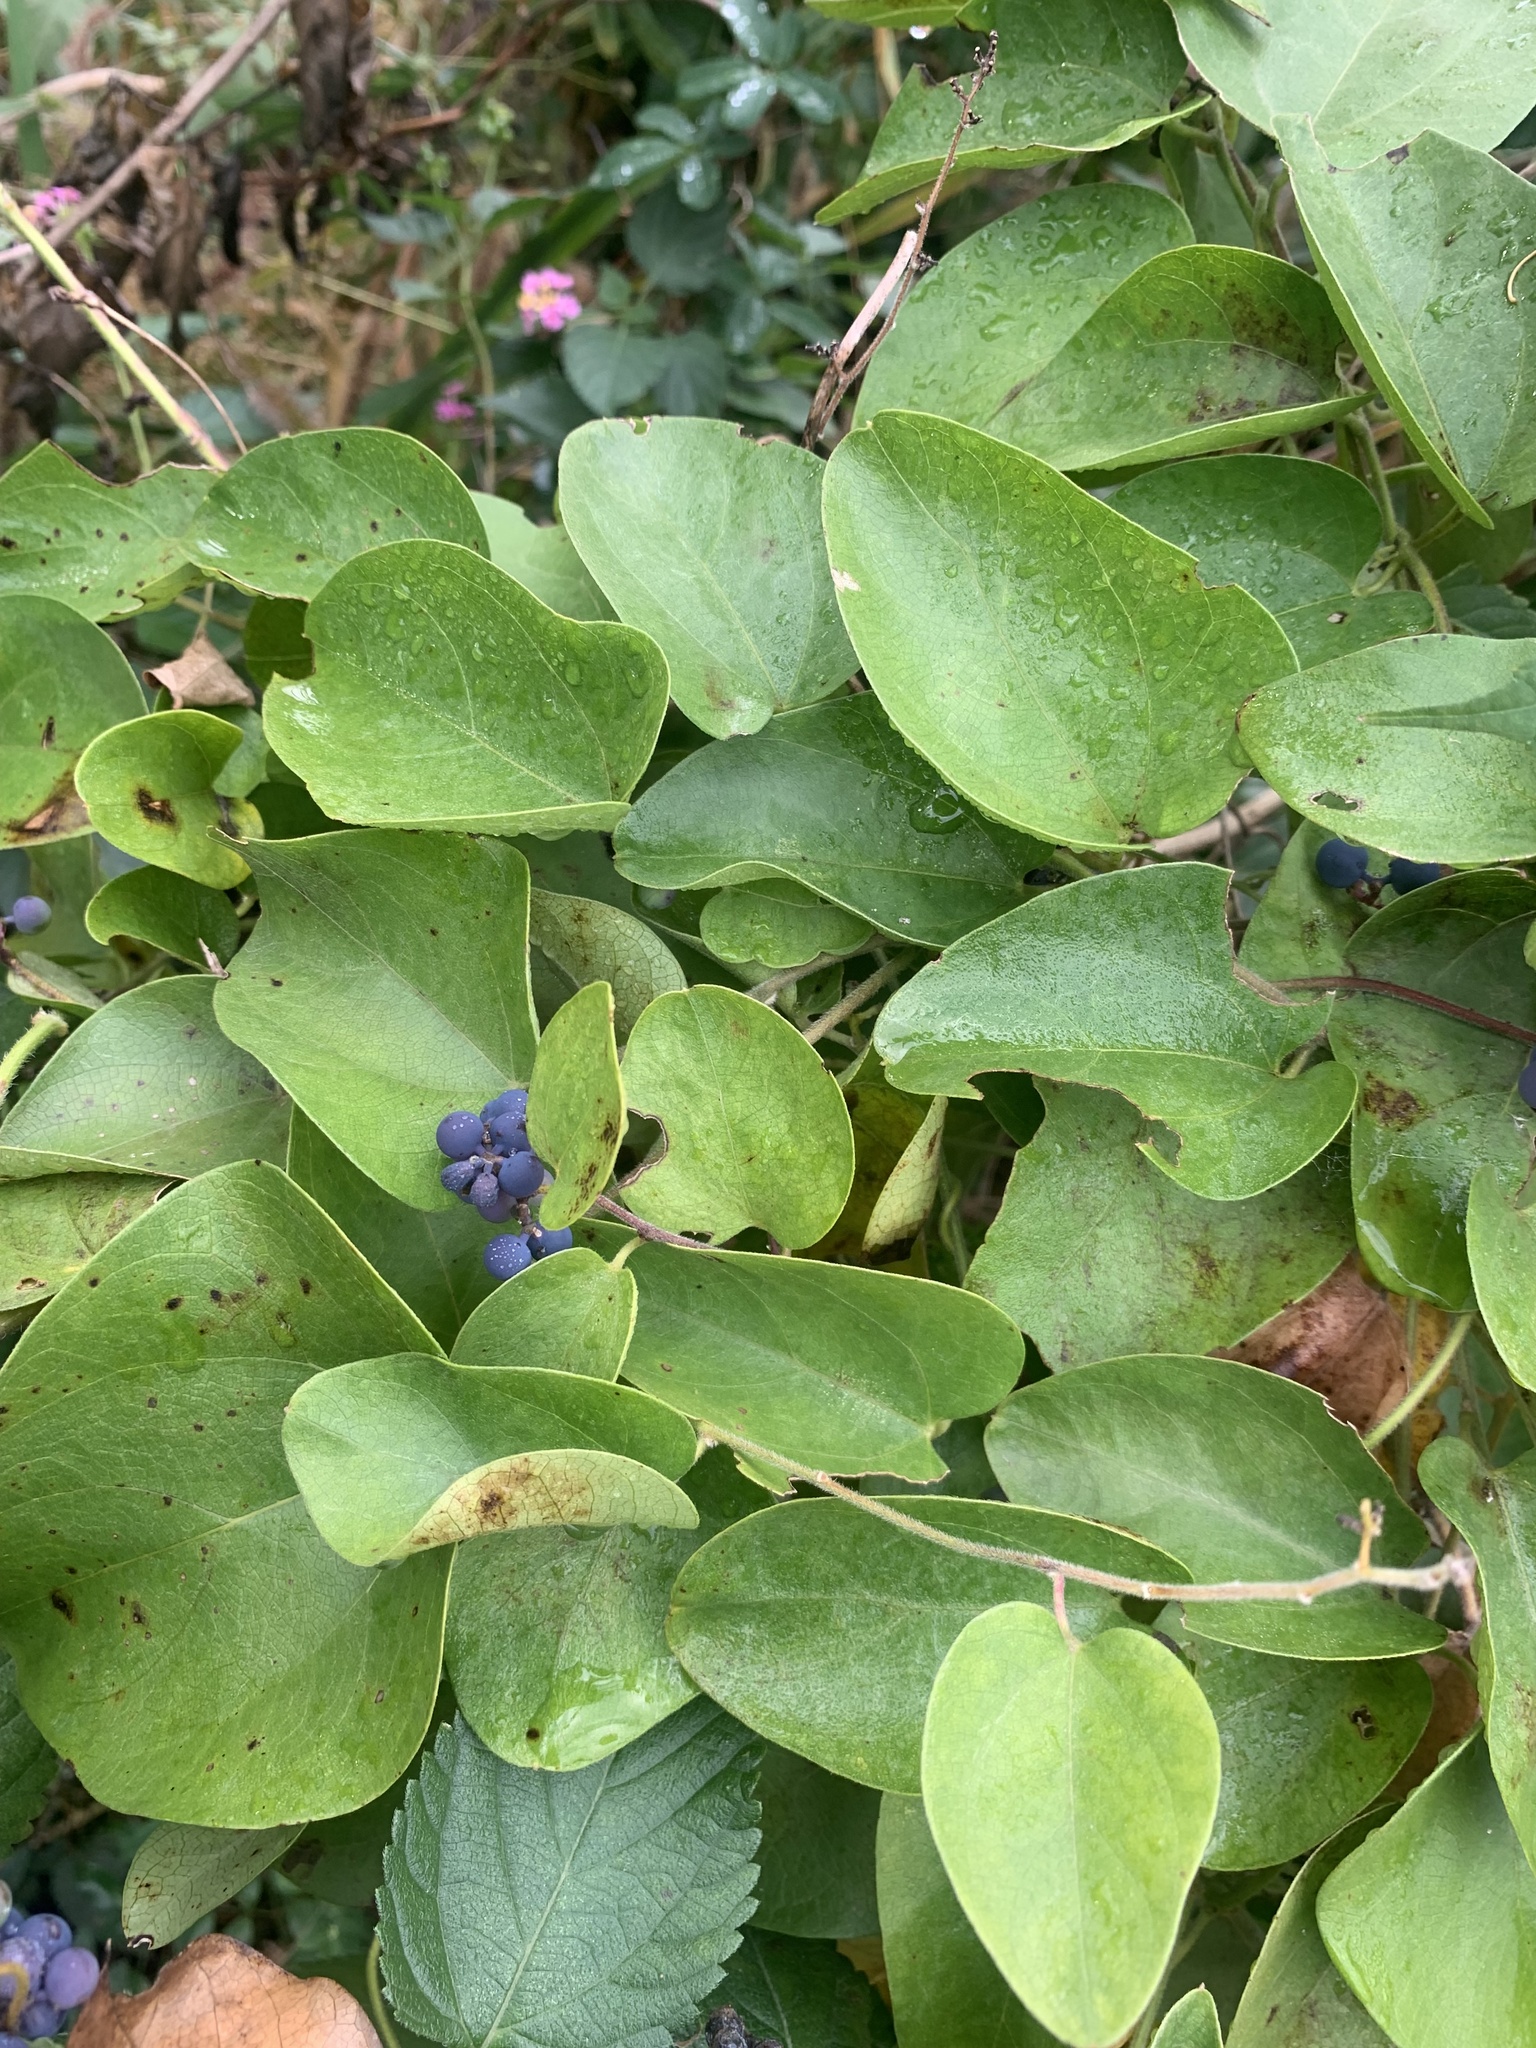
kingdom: Plantae
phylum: Tracheophyta
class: Magnoliopsida
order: Ranunculales
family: Menispermaceae
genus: Cocculus
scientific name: Cocculus orbiculatus
